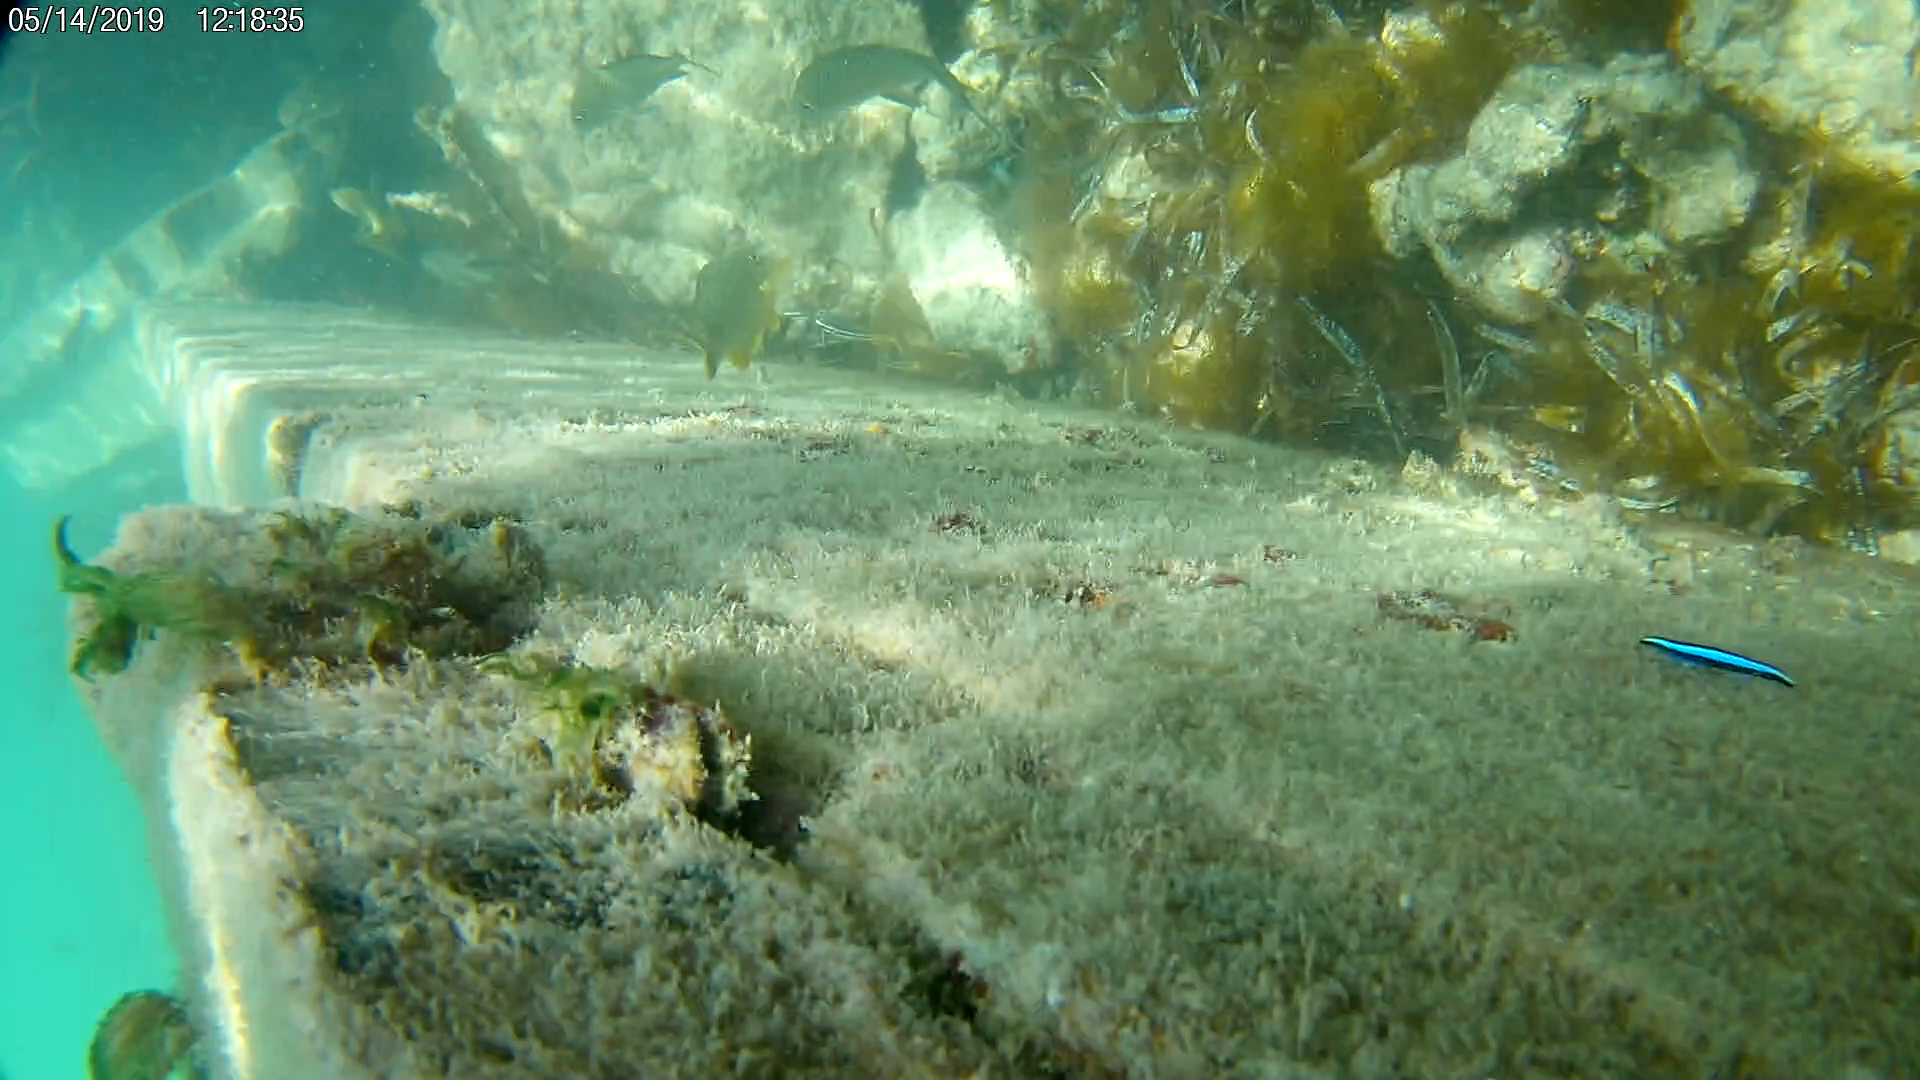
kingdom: Animalia
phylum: Chordata
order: Perciformes
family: Gobiidae
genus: Elacatinus
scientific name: Elacatinus oceanops
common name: Northern neon goby
